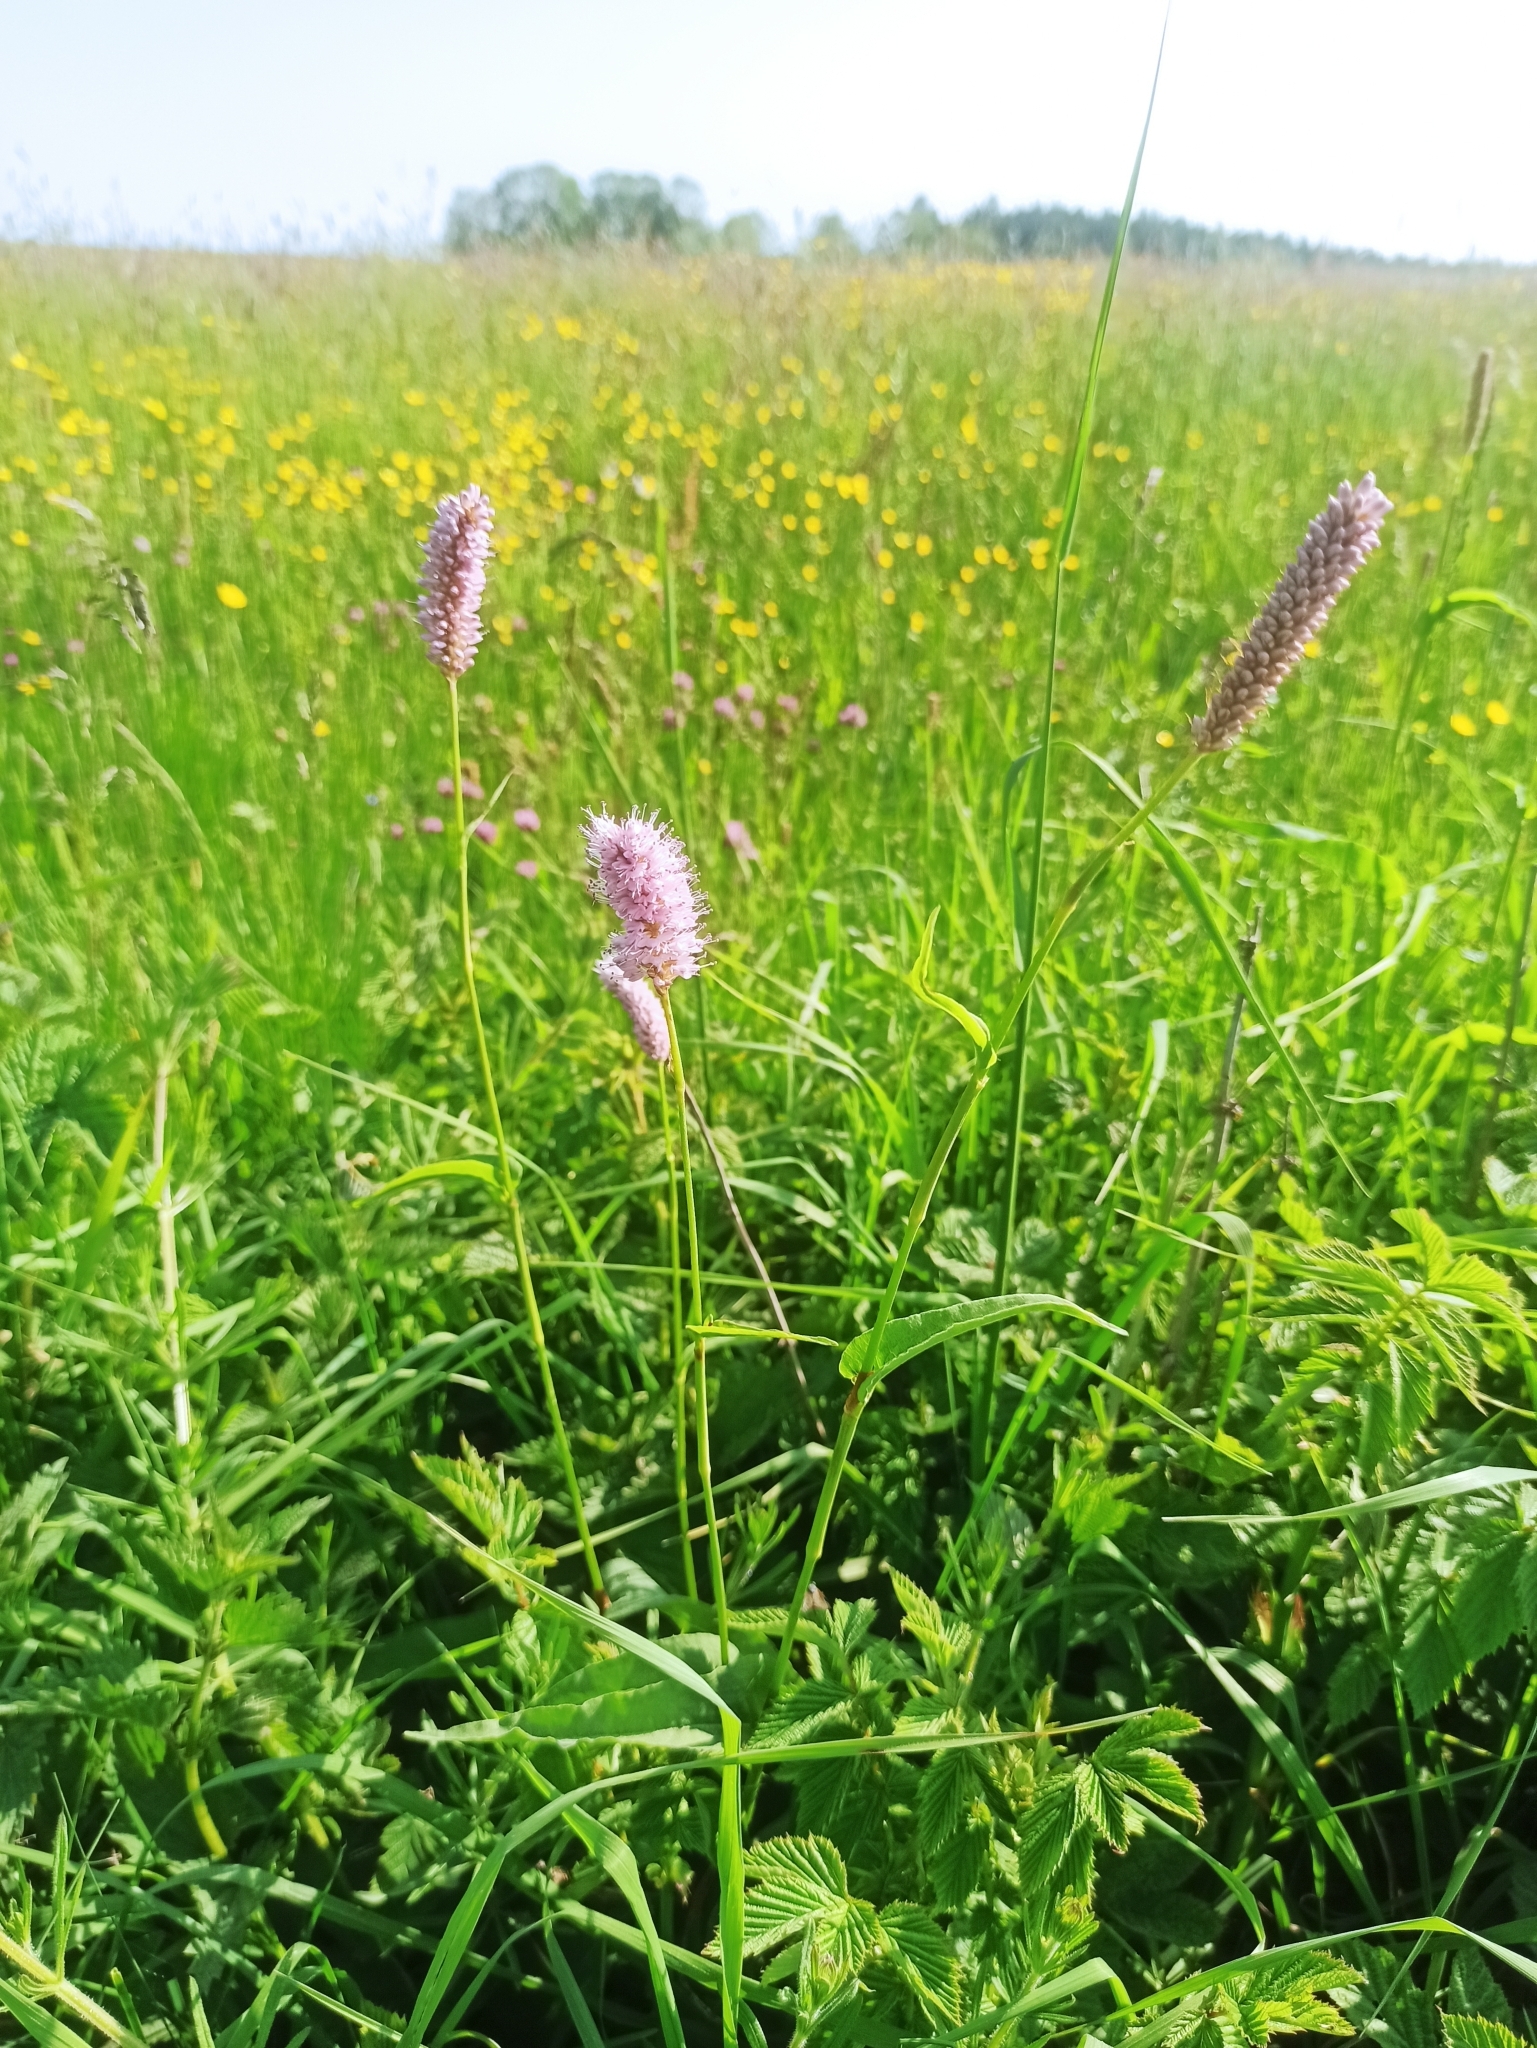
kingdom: Plantae
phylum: Tracheophyta
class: Magnoliopsida
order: Caryophyllales
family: Polygonaceae
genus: Bistorta
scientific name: Bistorta officinalis
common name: Common bistort
